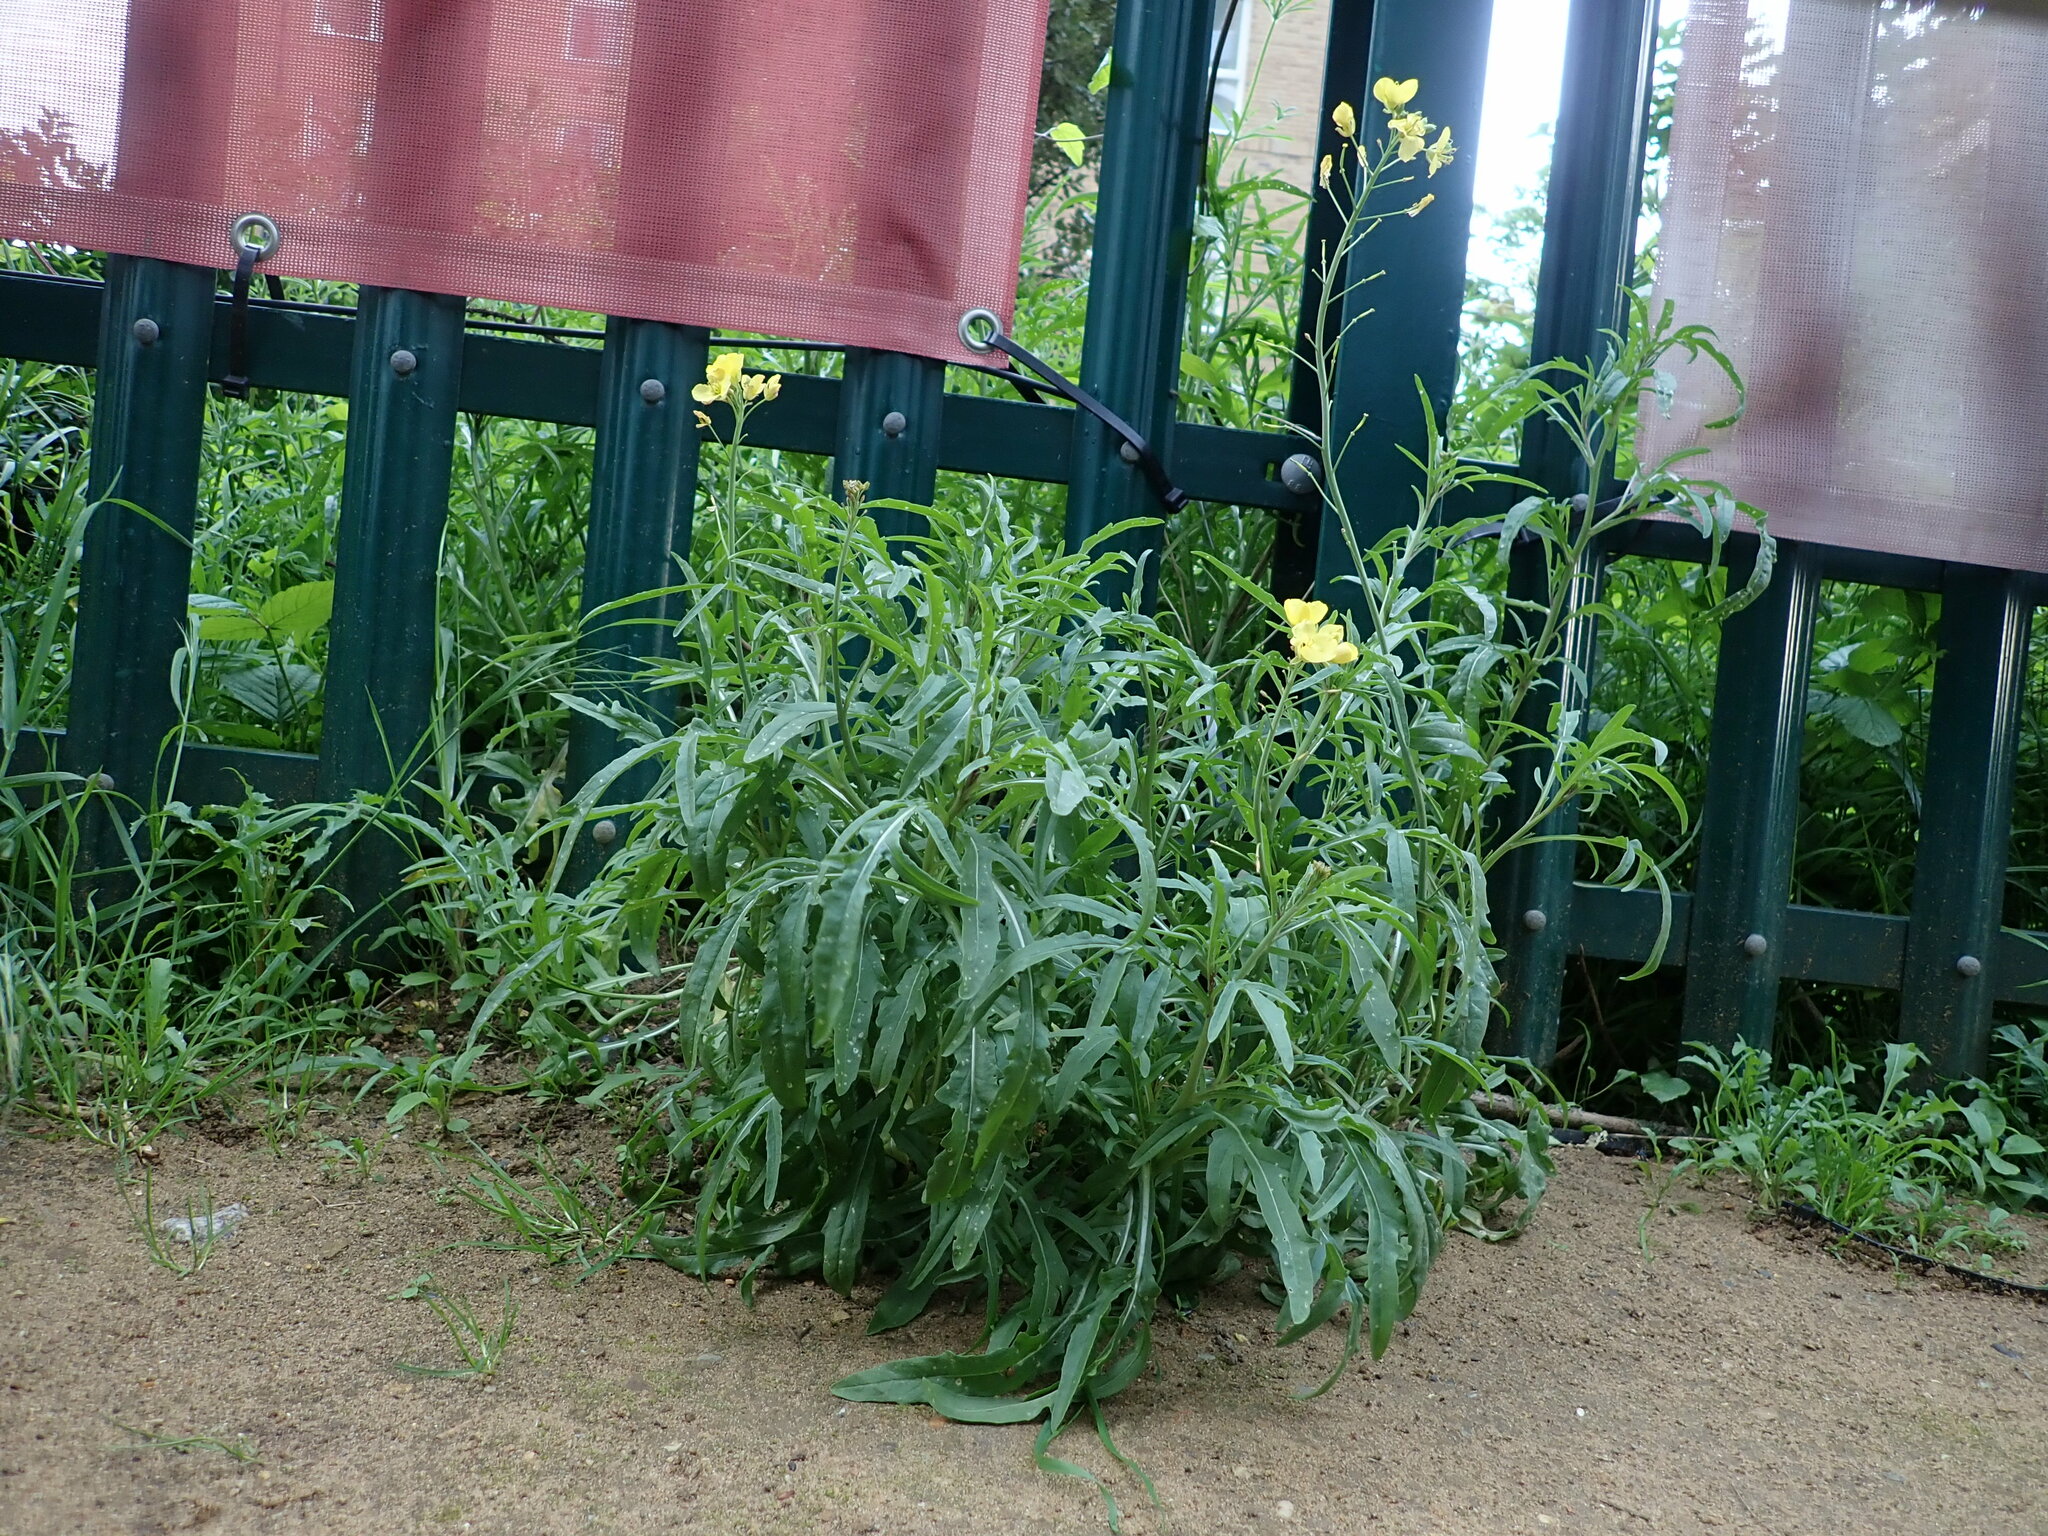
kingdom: Plantae
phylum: Tracheophyta
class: Magnoliopsida
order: Brassicales
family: Brassicaceae
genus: Diplotaxis
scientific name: Diplotaxis tenuifolia
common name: Perennial wall-rocket
